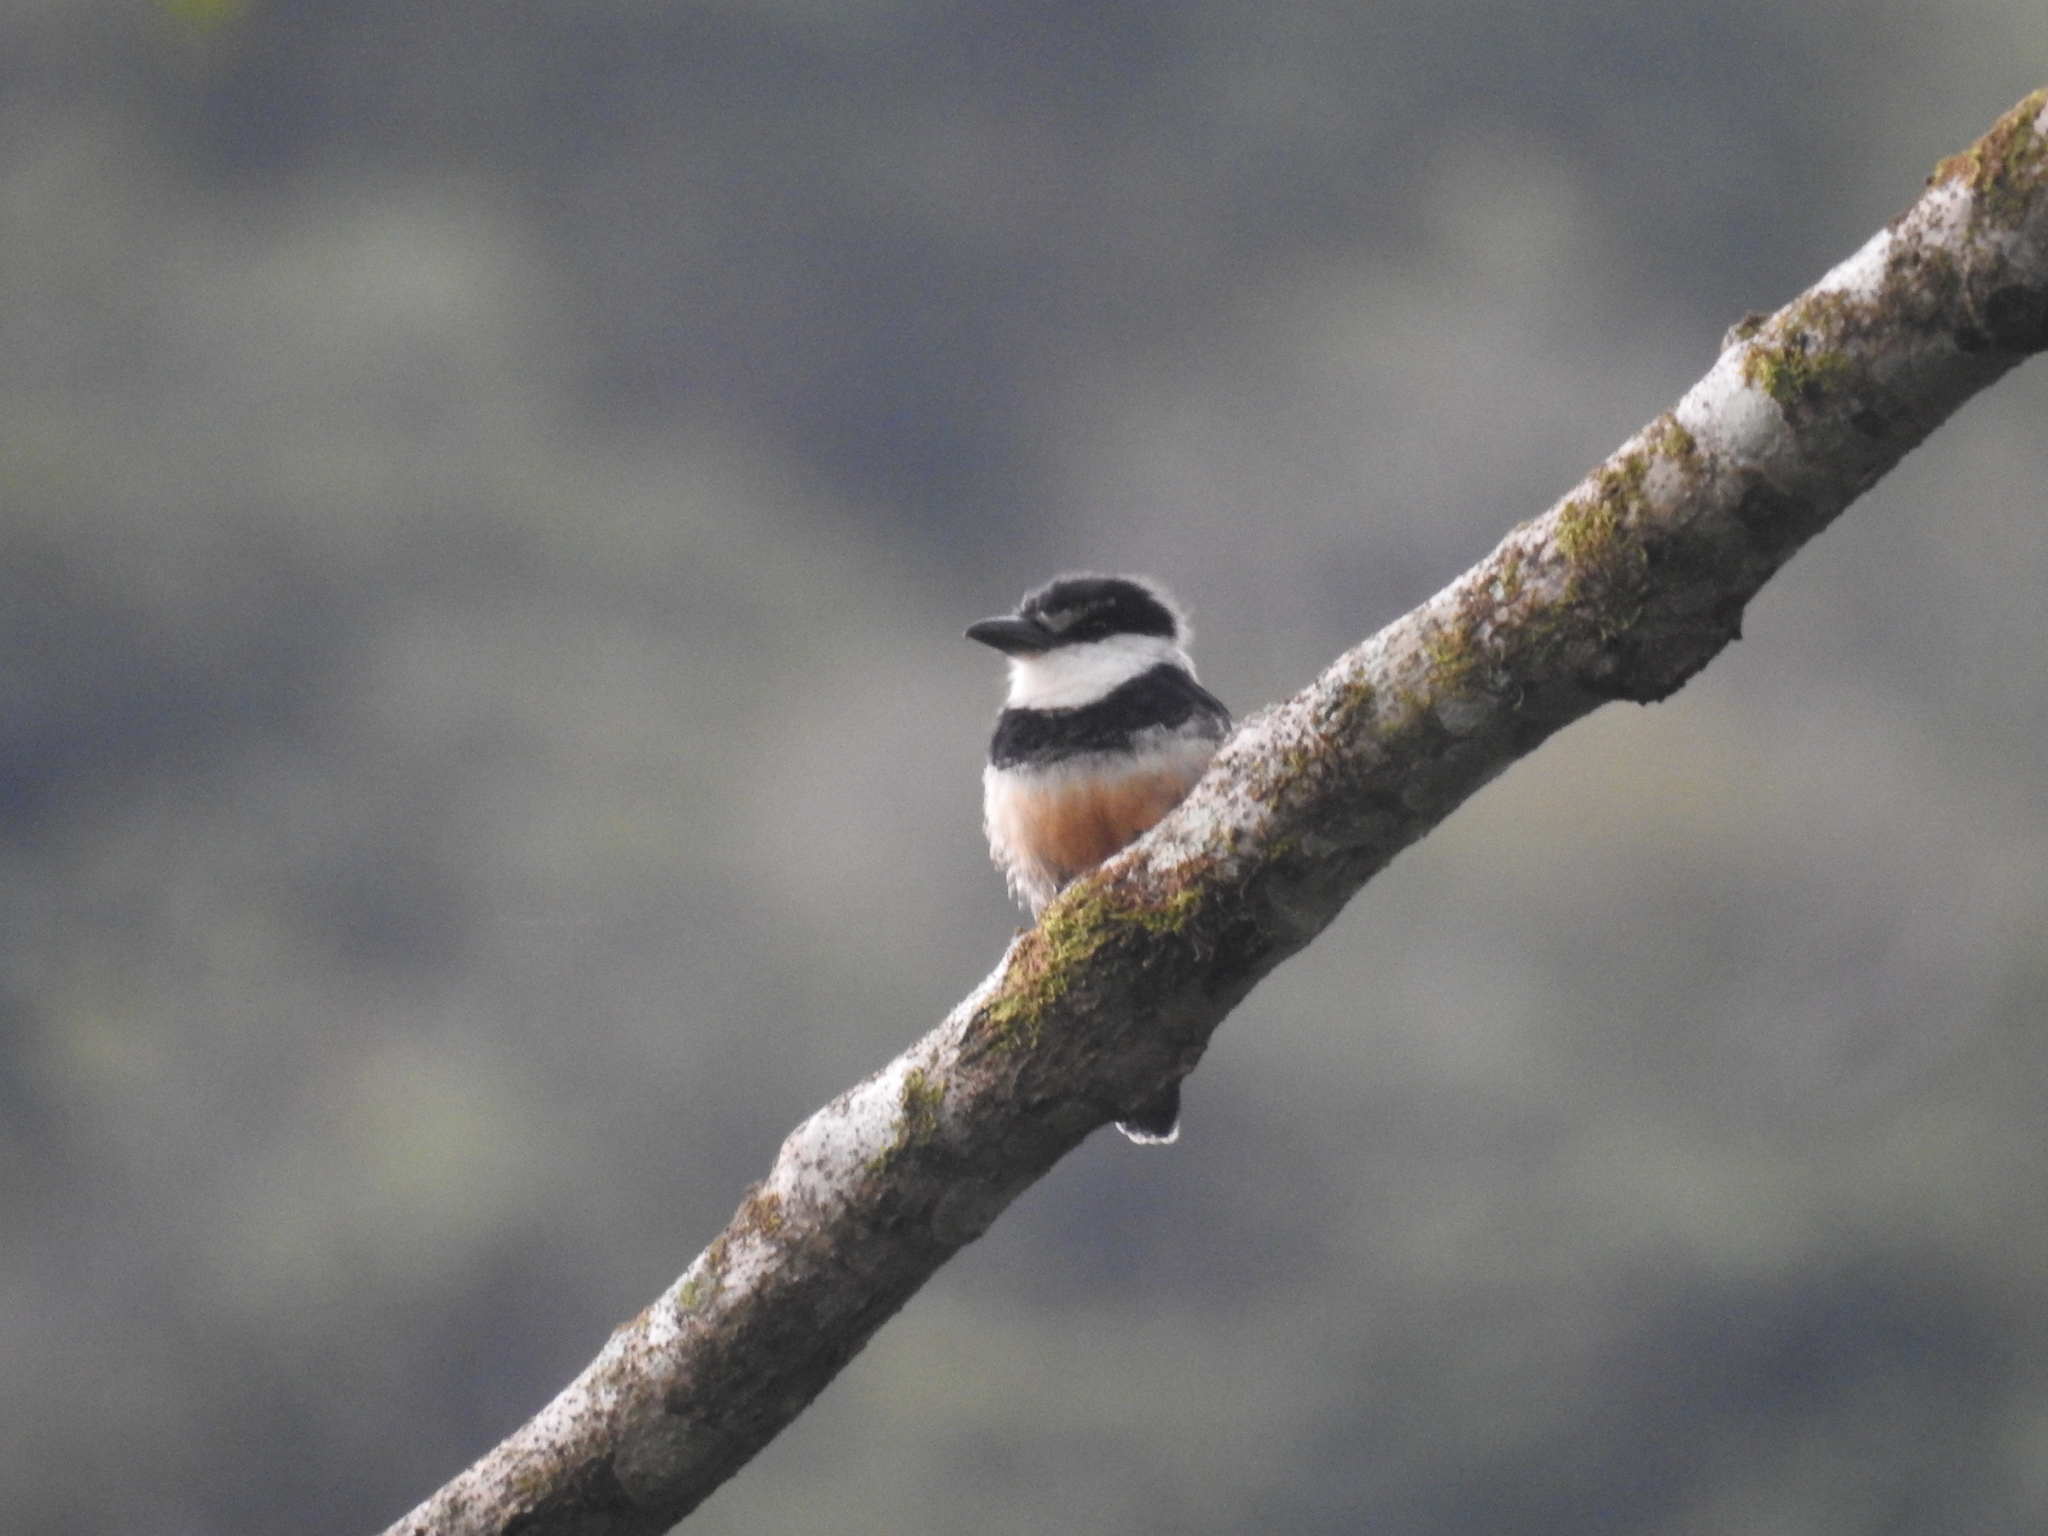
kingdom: Animalia
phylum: Chordata
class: Aves
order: Piciformes
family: Bucconidae
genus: Notharchus
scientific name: Notharchus swainsoni
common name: Buff-bellied puffbird
